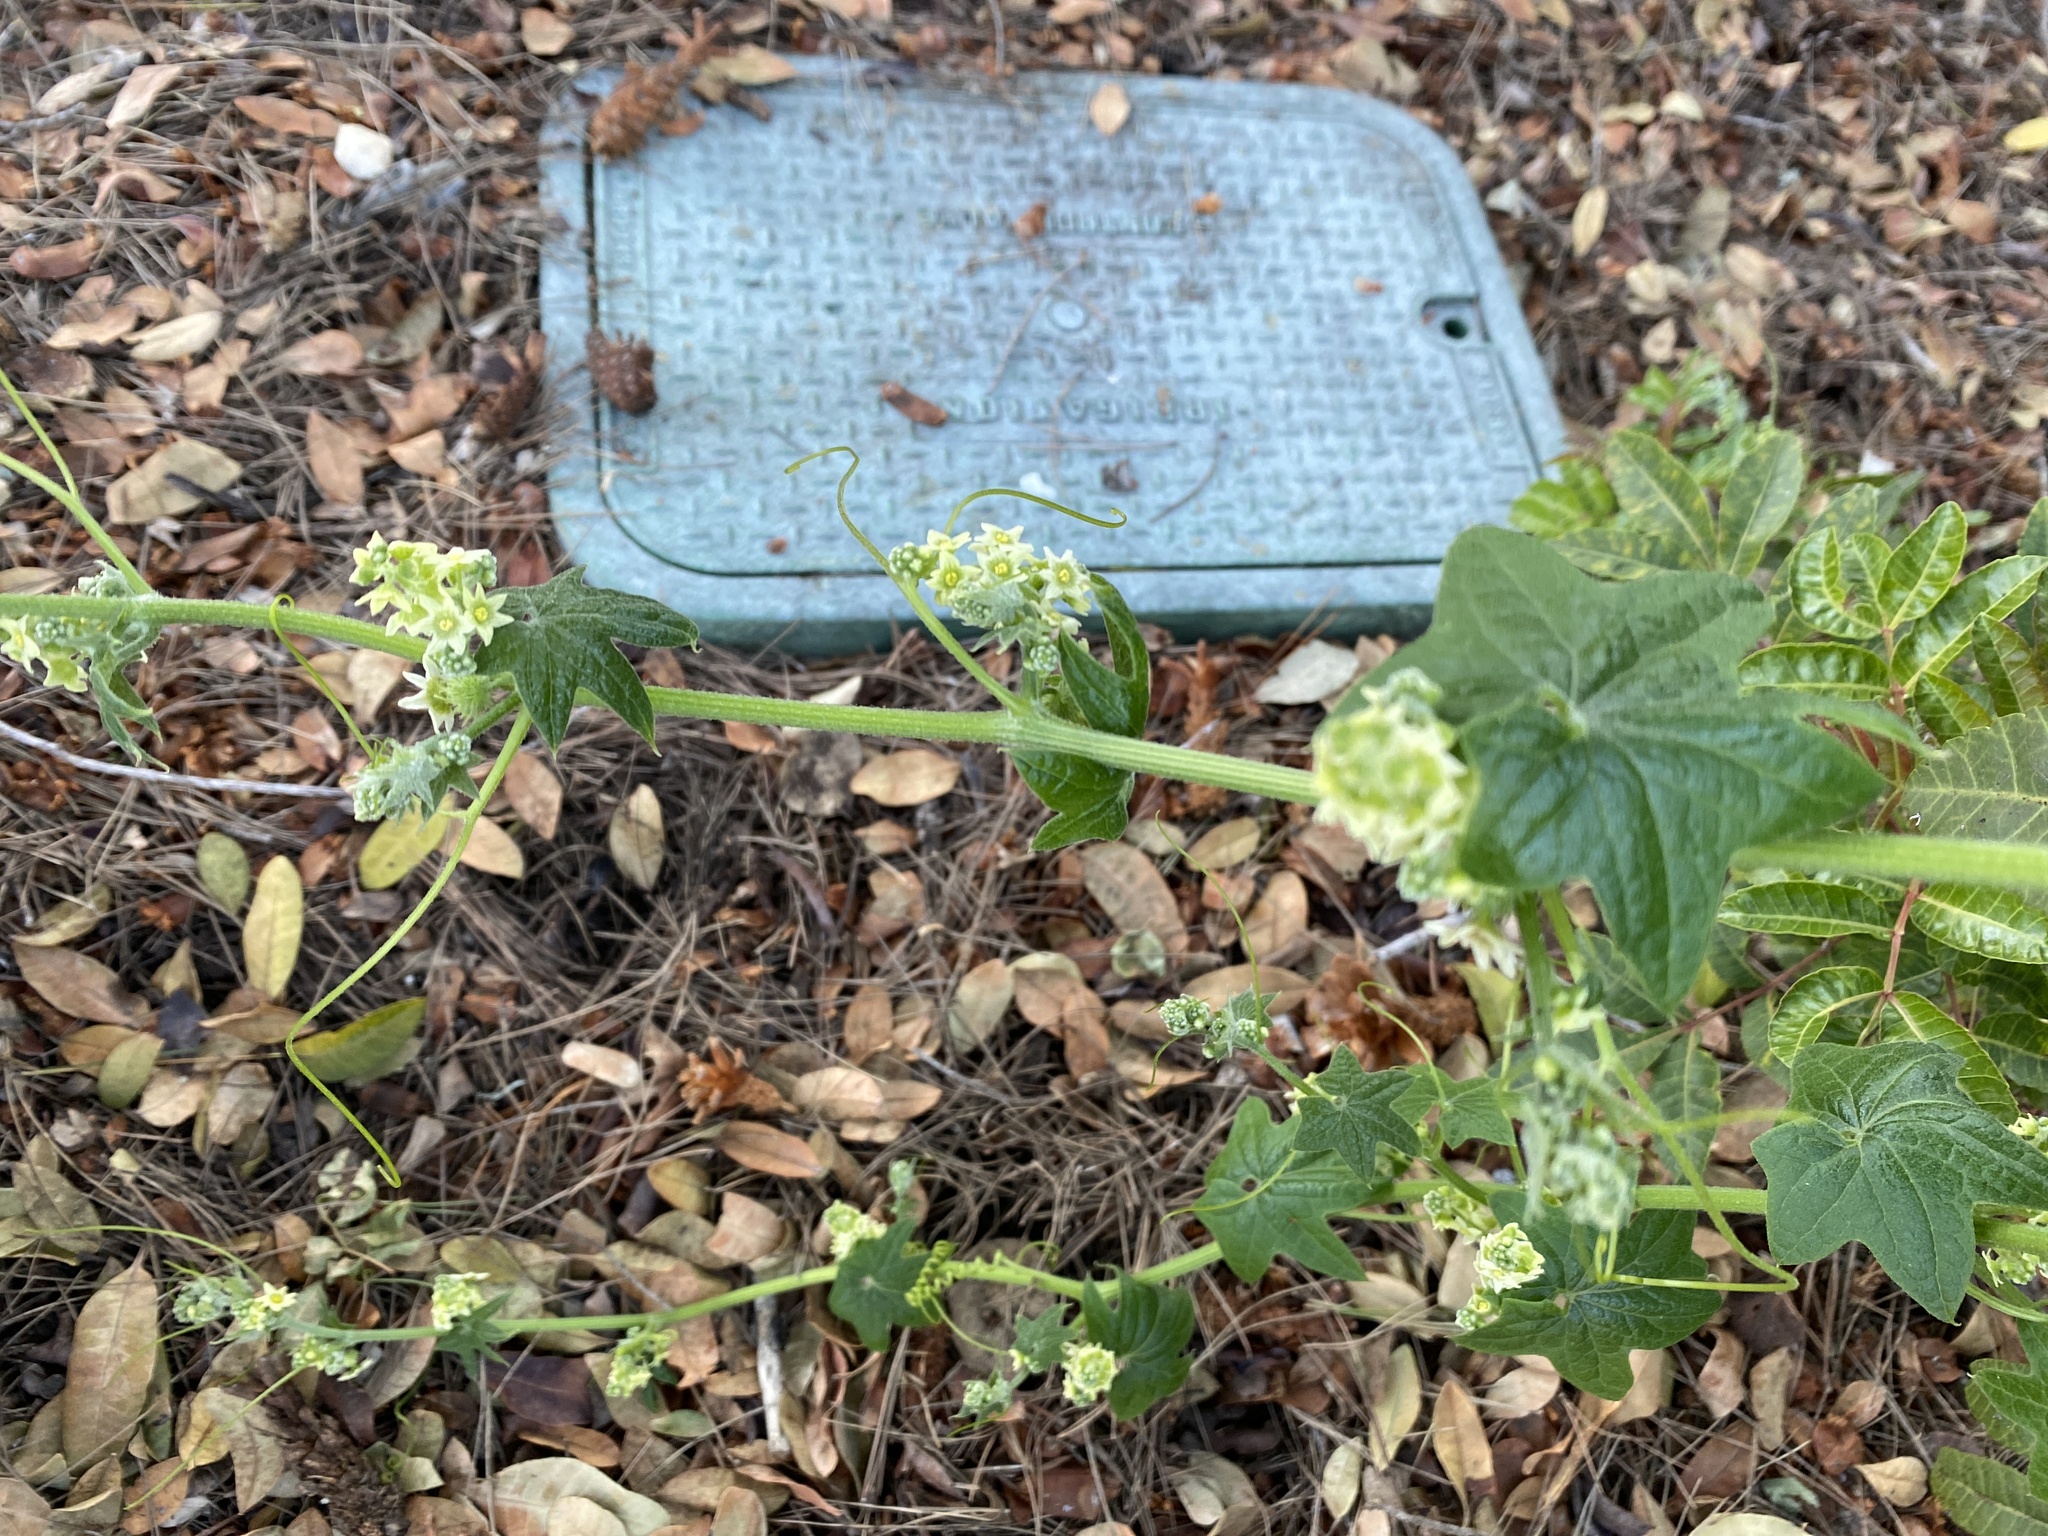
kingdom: Plantae
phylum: Tracheophyta
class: Magnoliopsida
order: Cucurbitales
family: Cucurbitaceae
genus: Marah
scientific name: Marah fabacea
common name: California manroot
